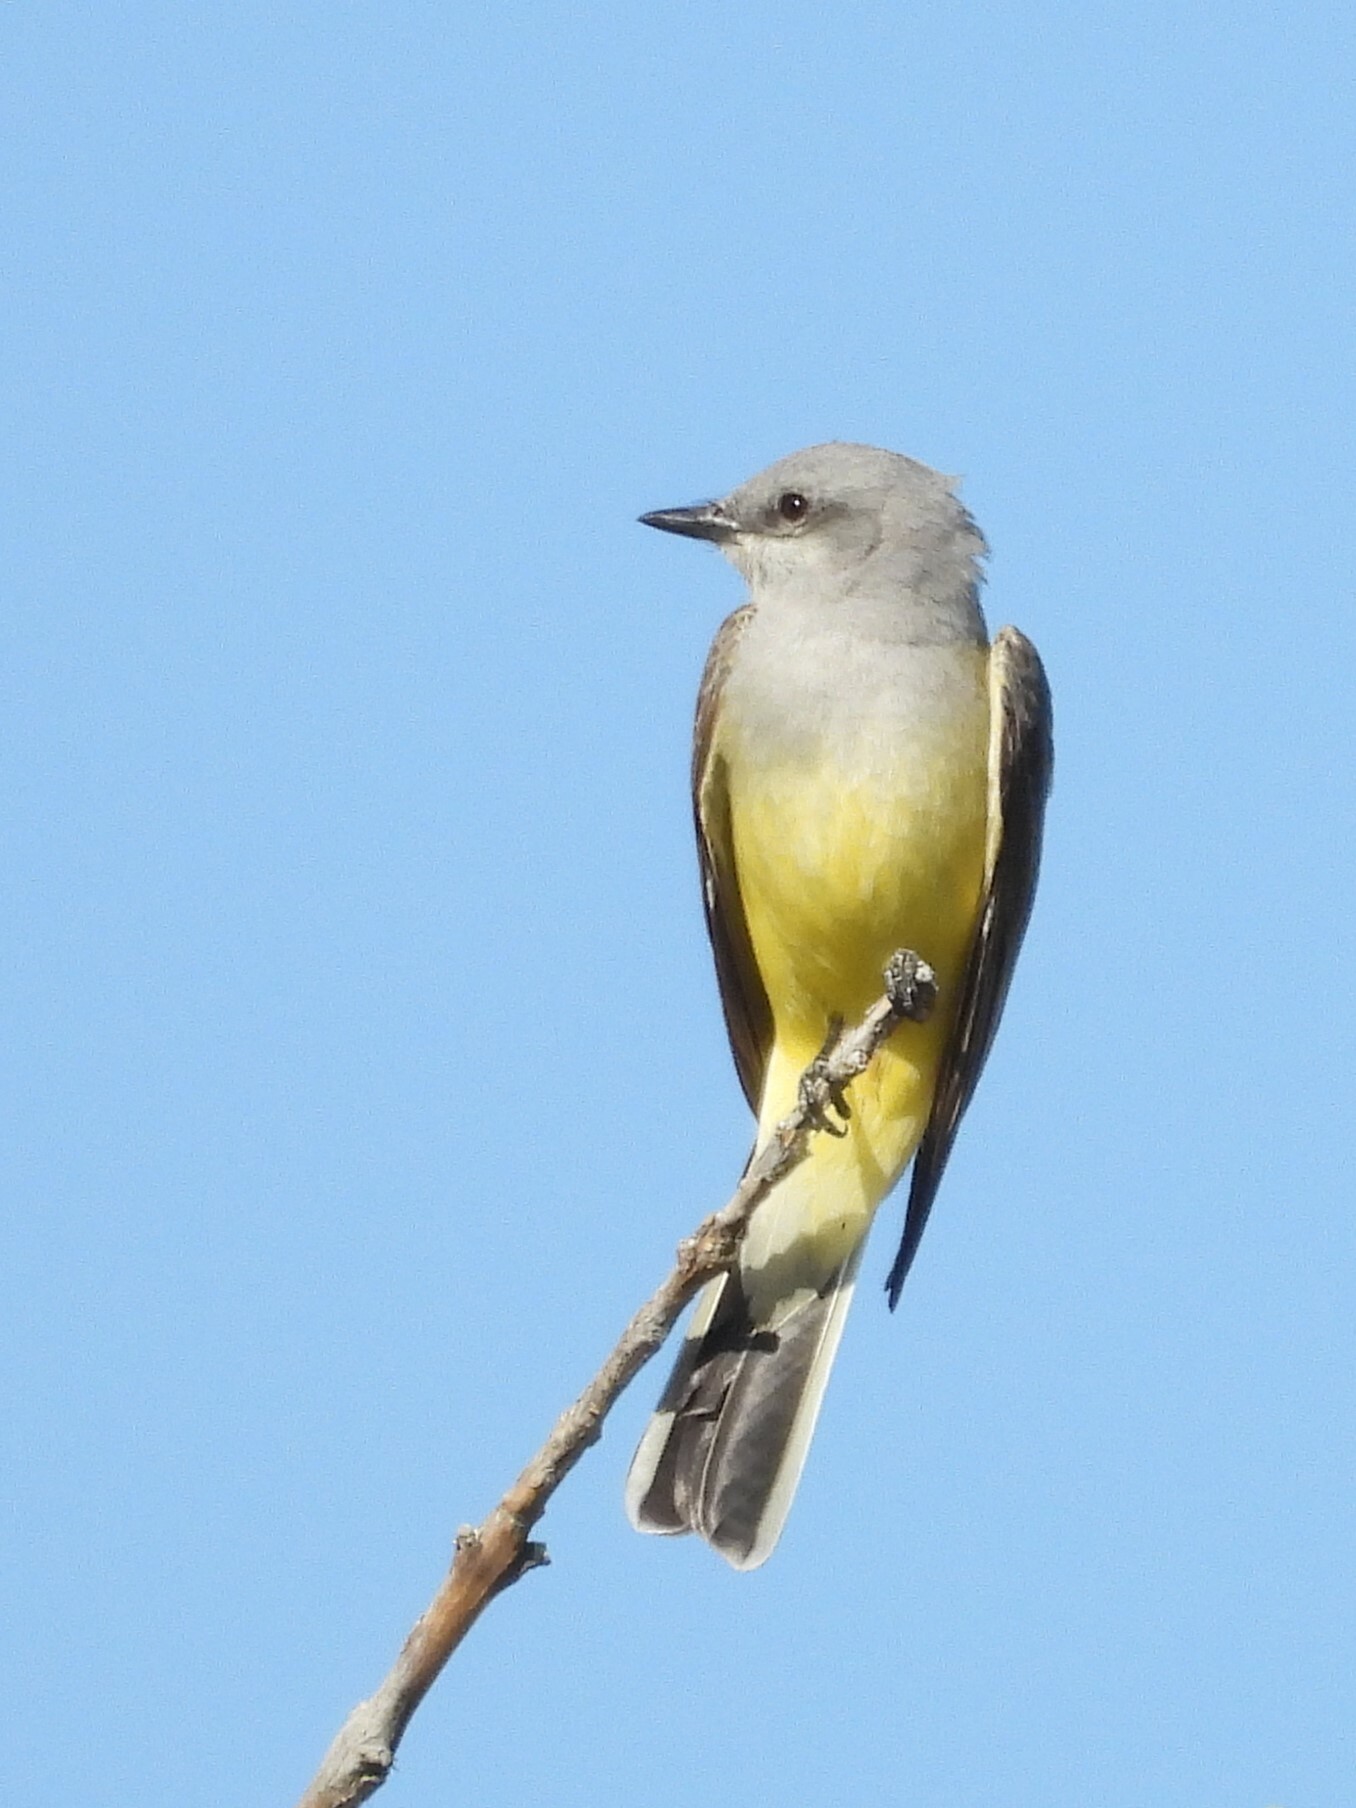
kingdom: Animalia
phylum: Chordata
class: Aves
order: Passeriformes
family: Tyrannidae
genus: Tyrannus
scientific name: Tyrannus verticalis
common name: Western kingbird
